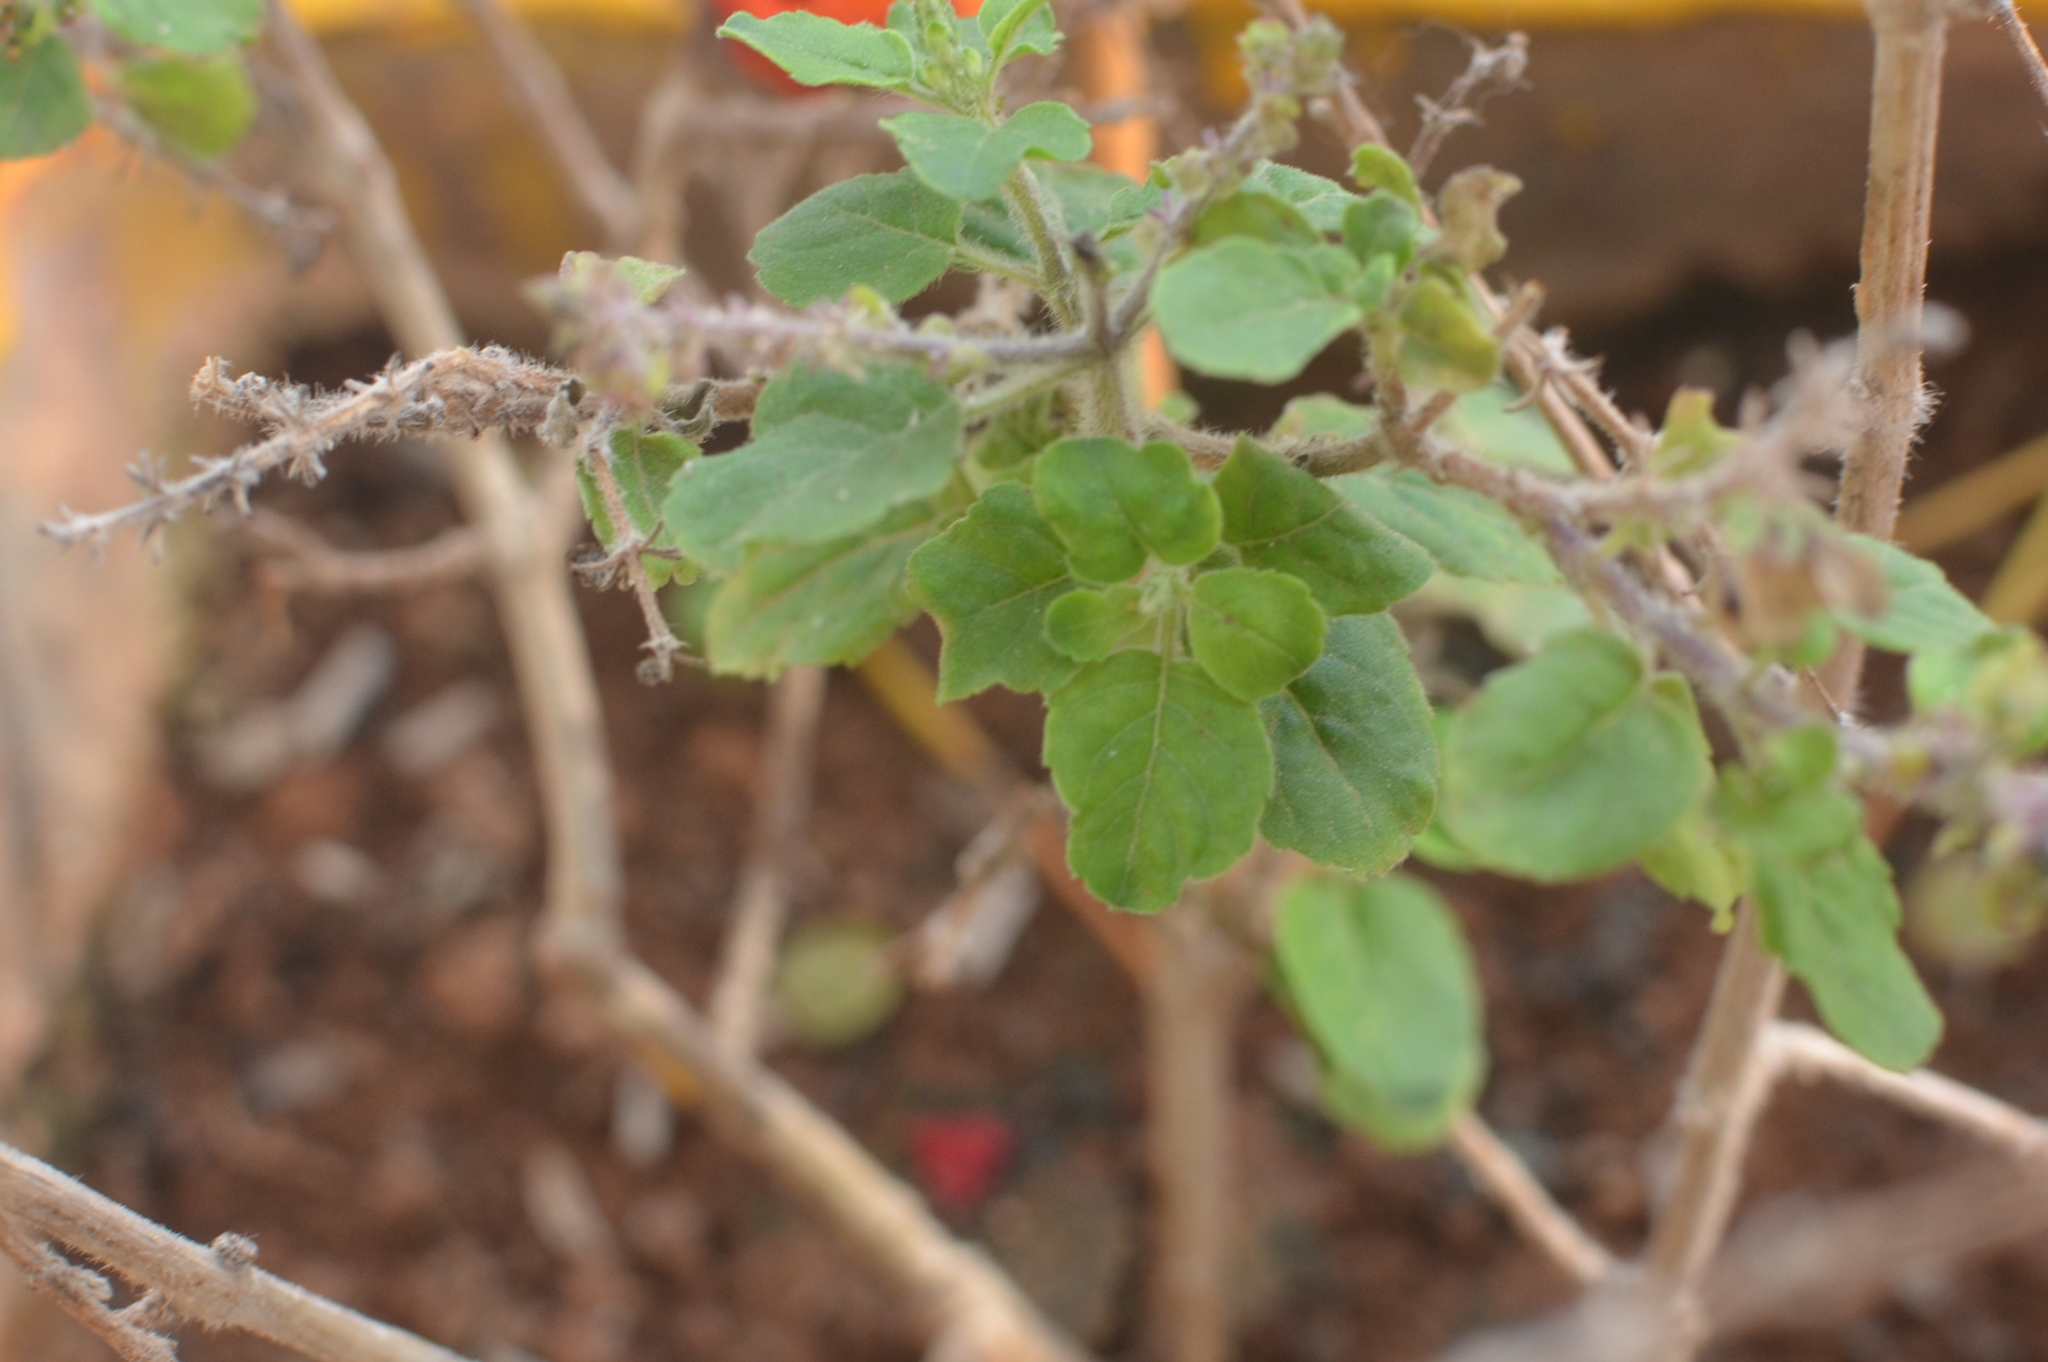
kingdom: Plantae
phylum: Tracheophyta
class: Magnoliopsida
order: Lamiales
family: Lamiaceae
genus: Ocimum
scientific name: Ocimum tenuiflorum
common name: Sacred basil
